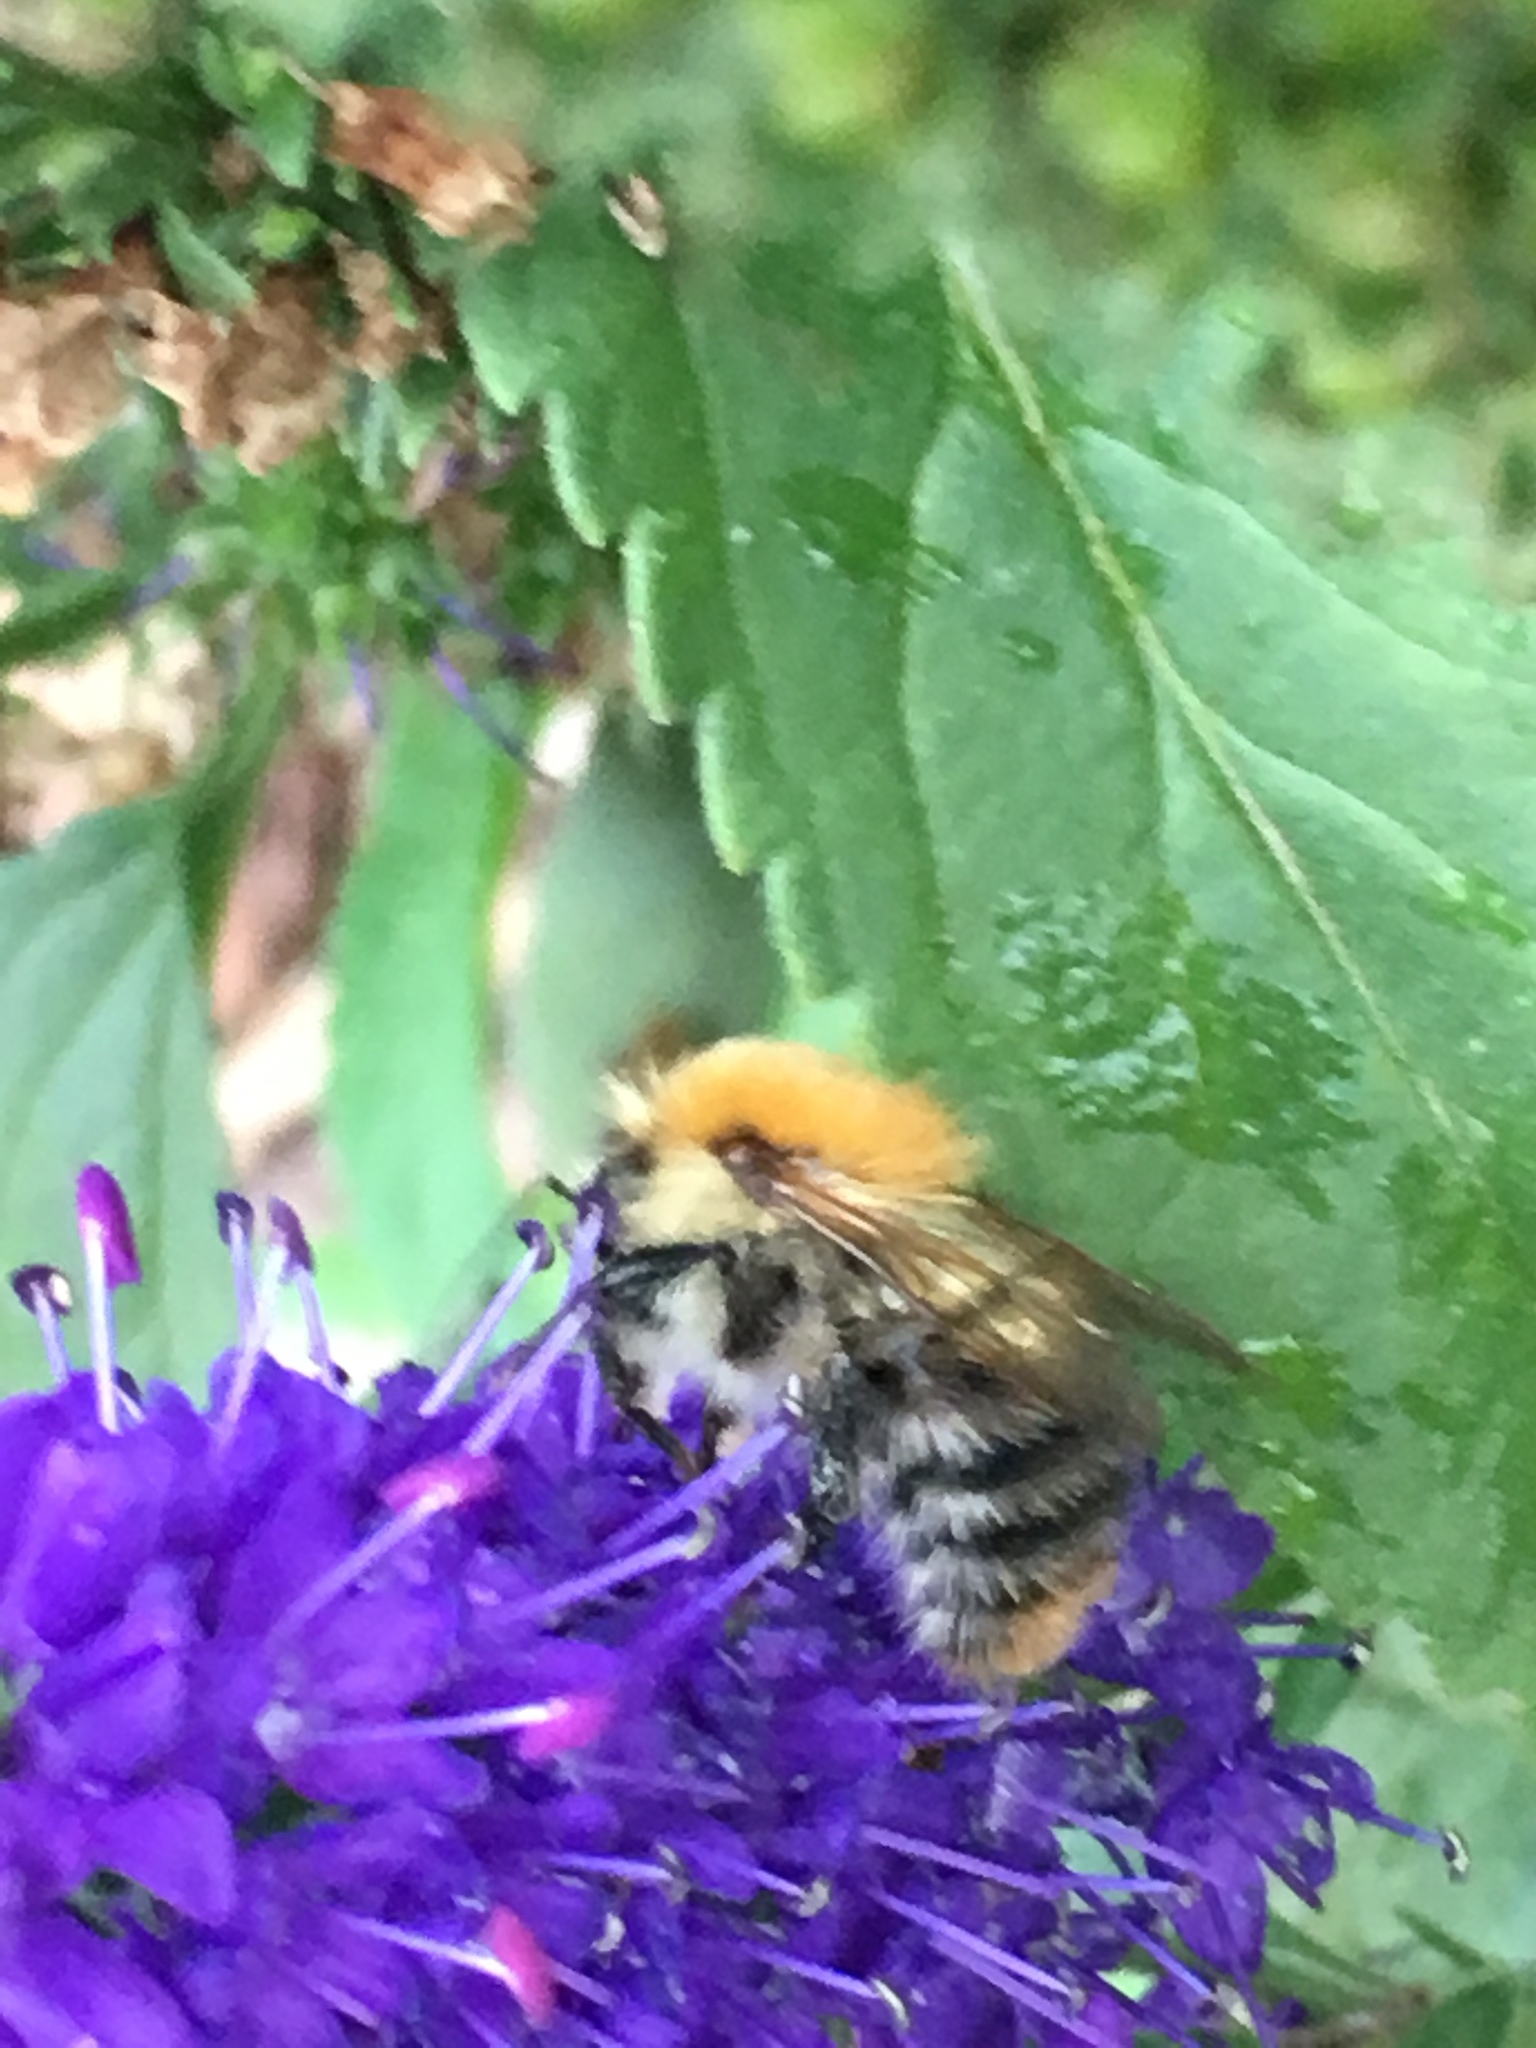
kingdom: Animalia
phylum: Arthropoda
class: Insecta
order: Hymenoptera
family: Apidae
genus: Bombus
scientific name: Bombus pascuorum
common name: Common carder bee
